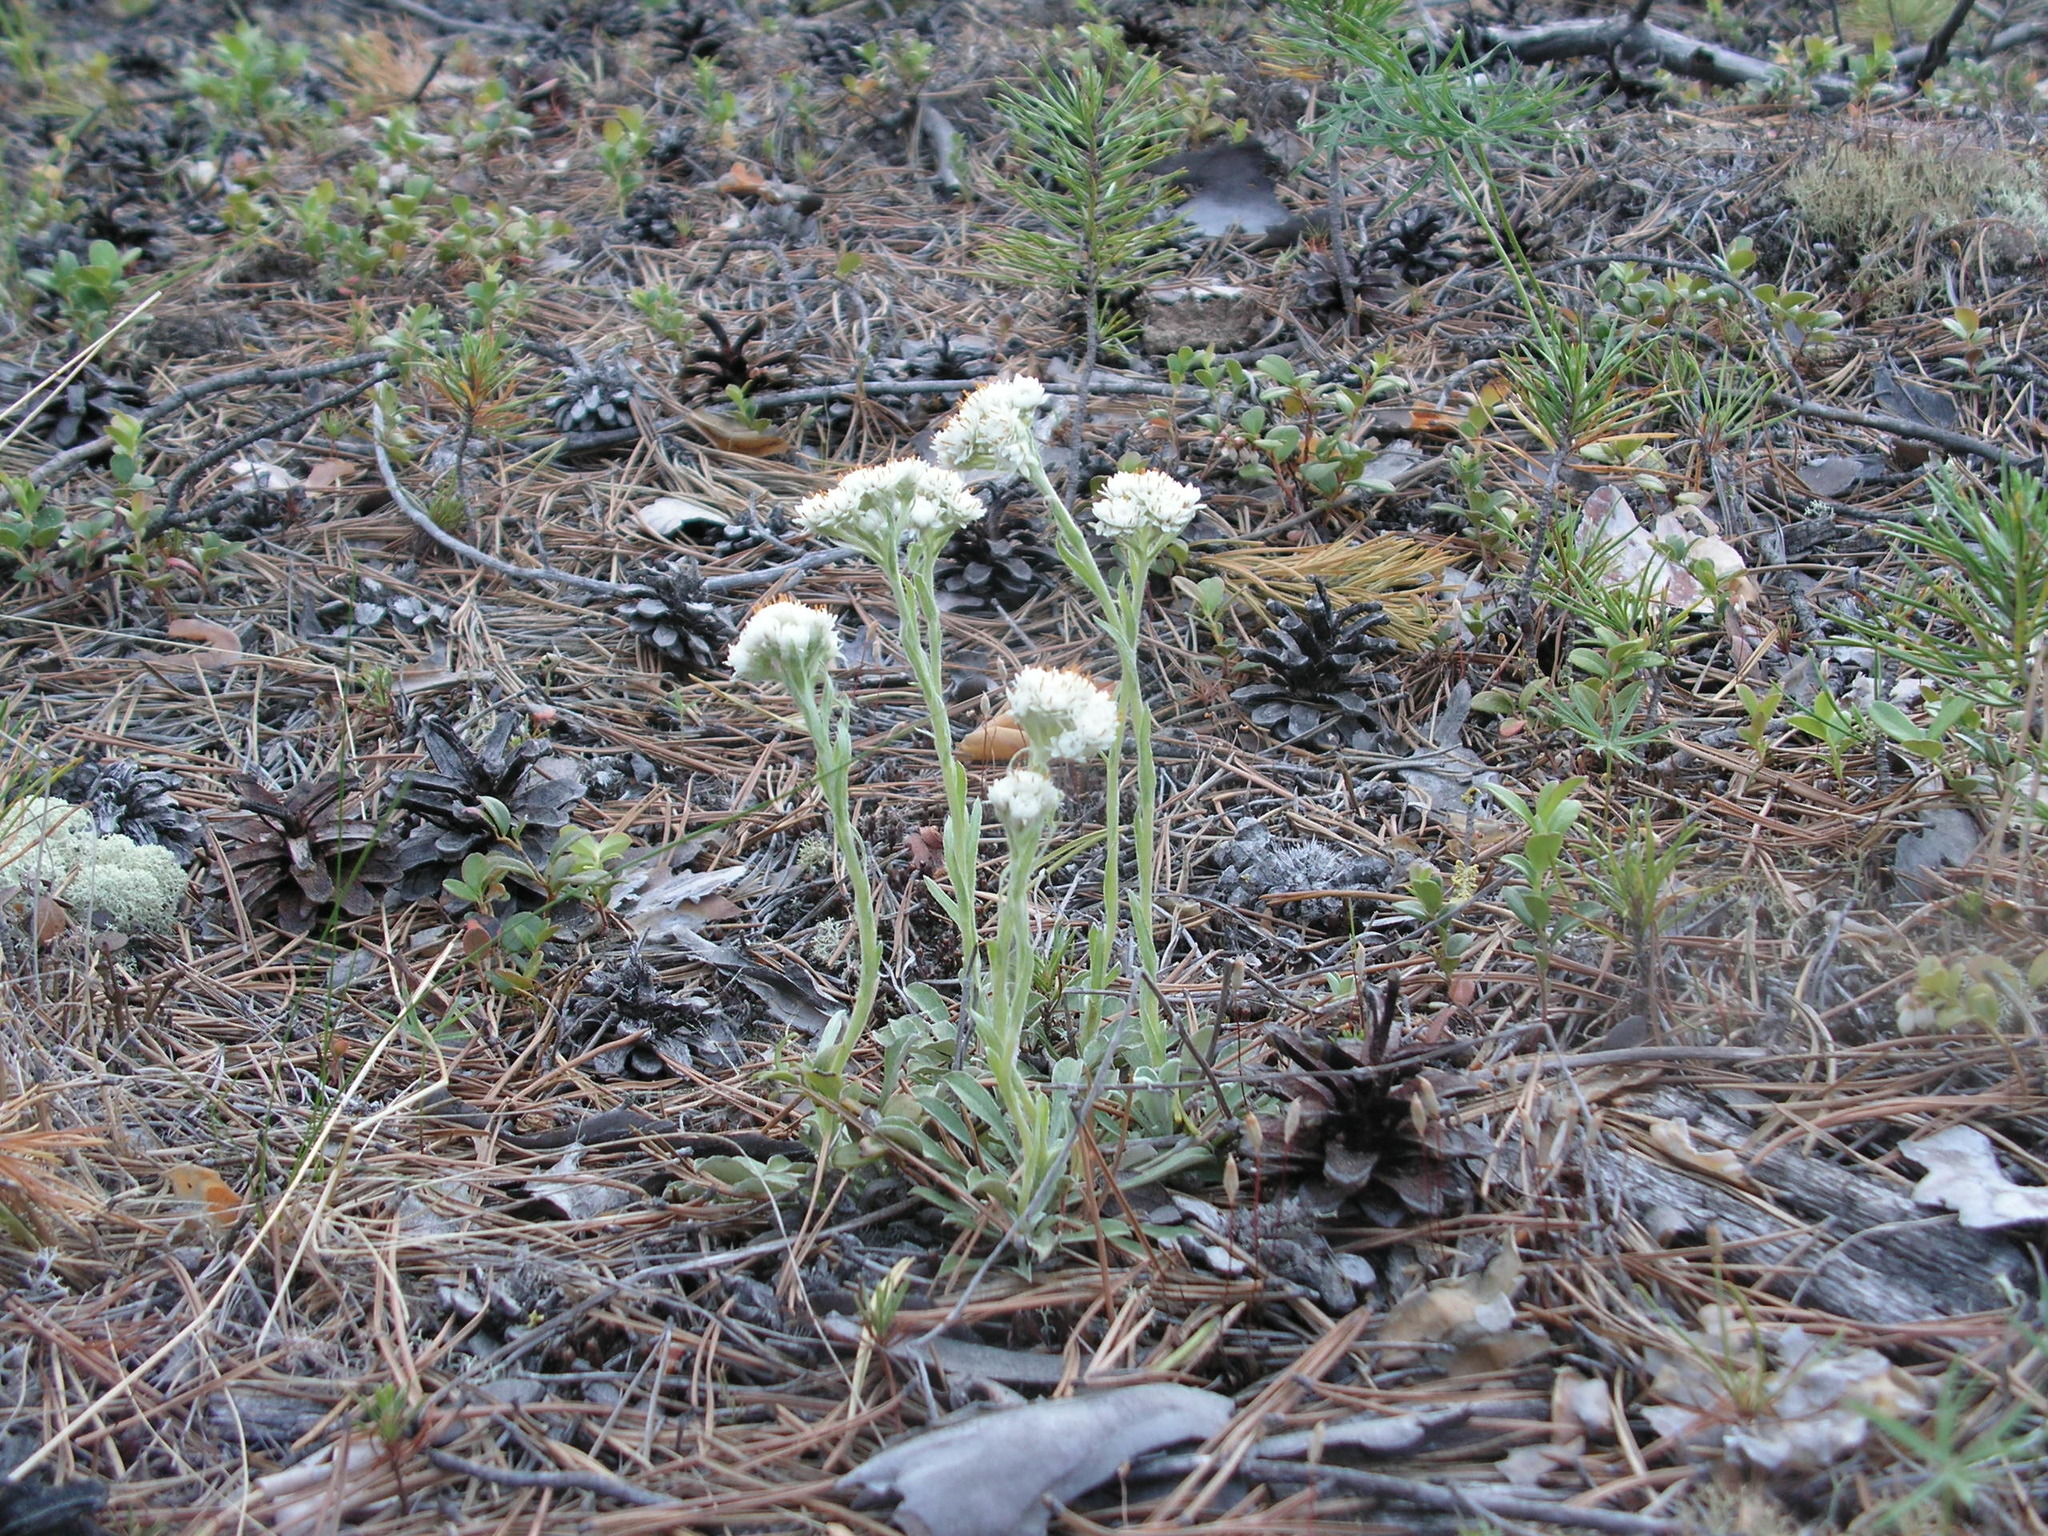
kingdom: Plantae
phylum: Tracheophyta
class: Magnoliopsida
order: Asterales
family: Asteraceae
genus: Antennaria
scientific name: Antennaria dioica
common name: Mountain everlasting
